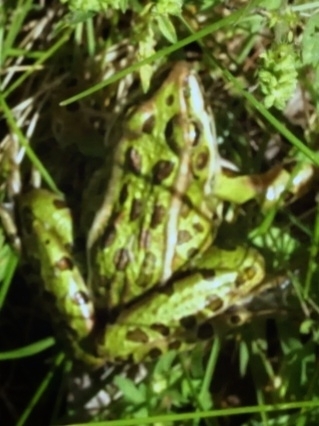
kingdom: Animalia
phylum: Chordata
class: Amphibia
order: Anura
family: Ranidae
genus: Lithobates
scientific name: Lithobates pipiens
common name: Northern leopard frog
